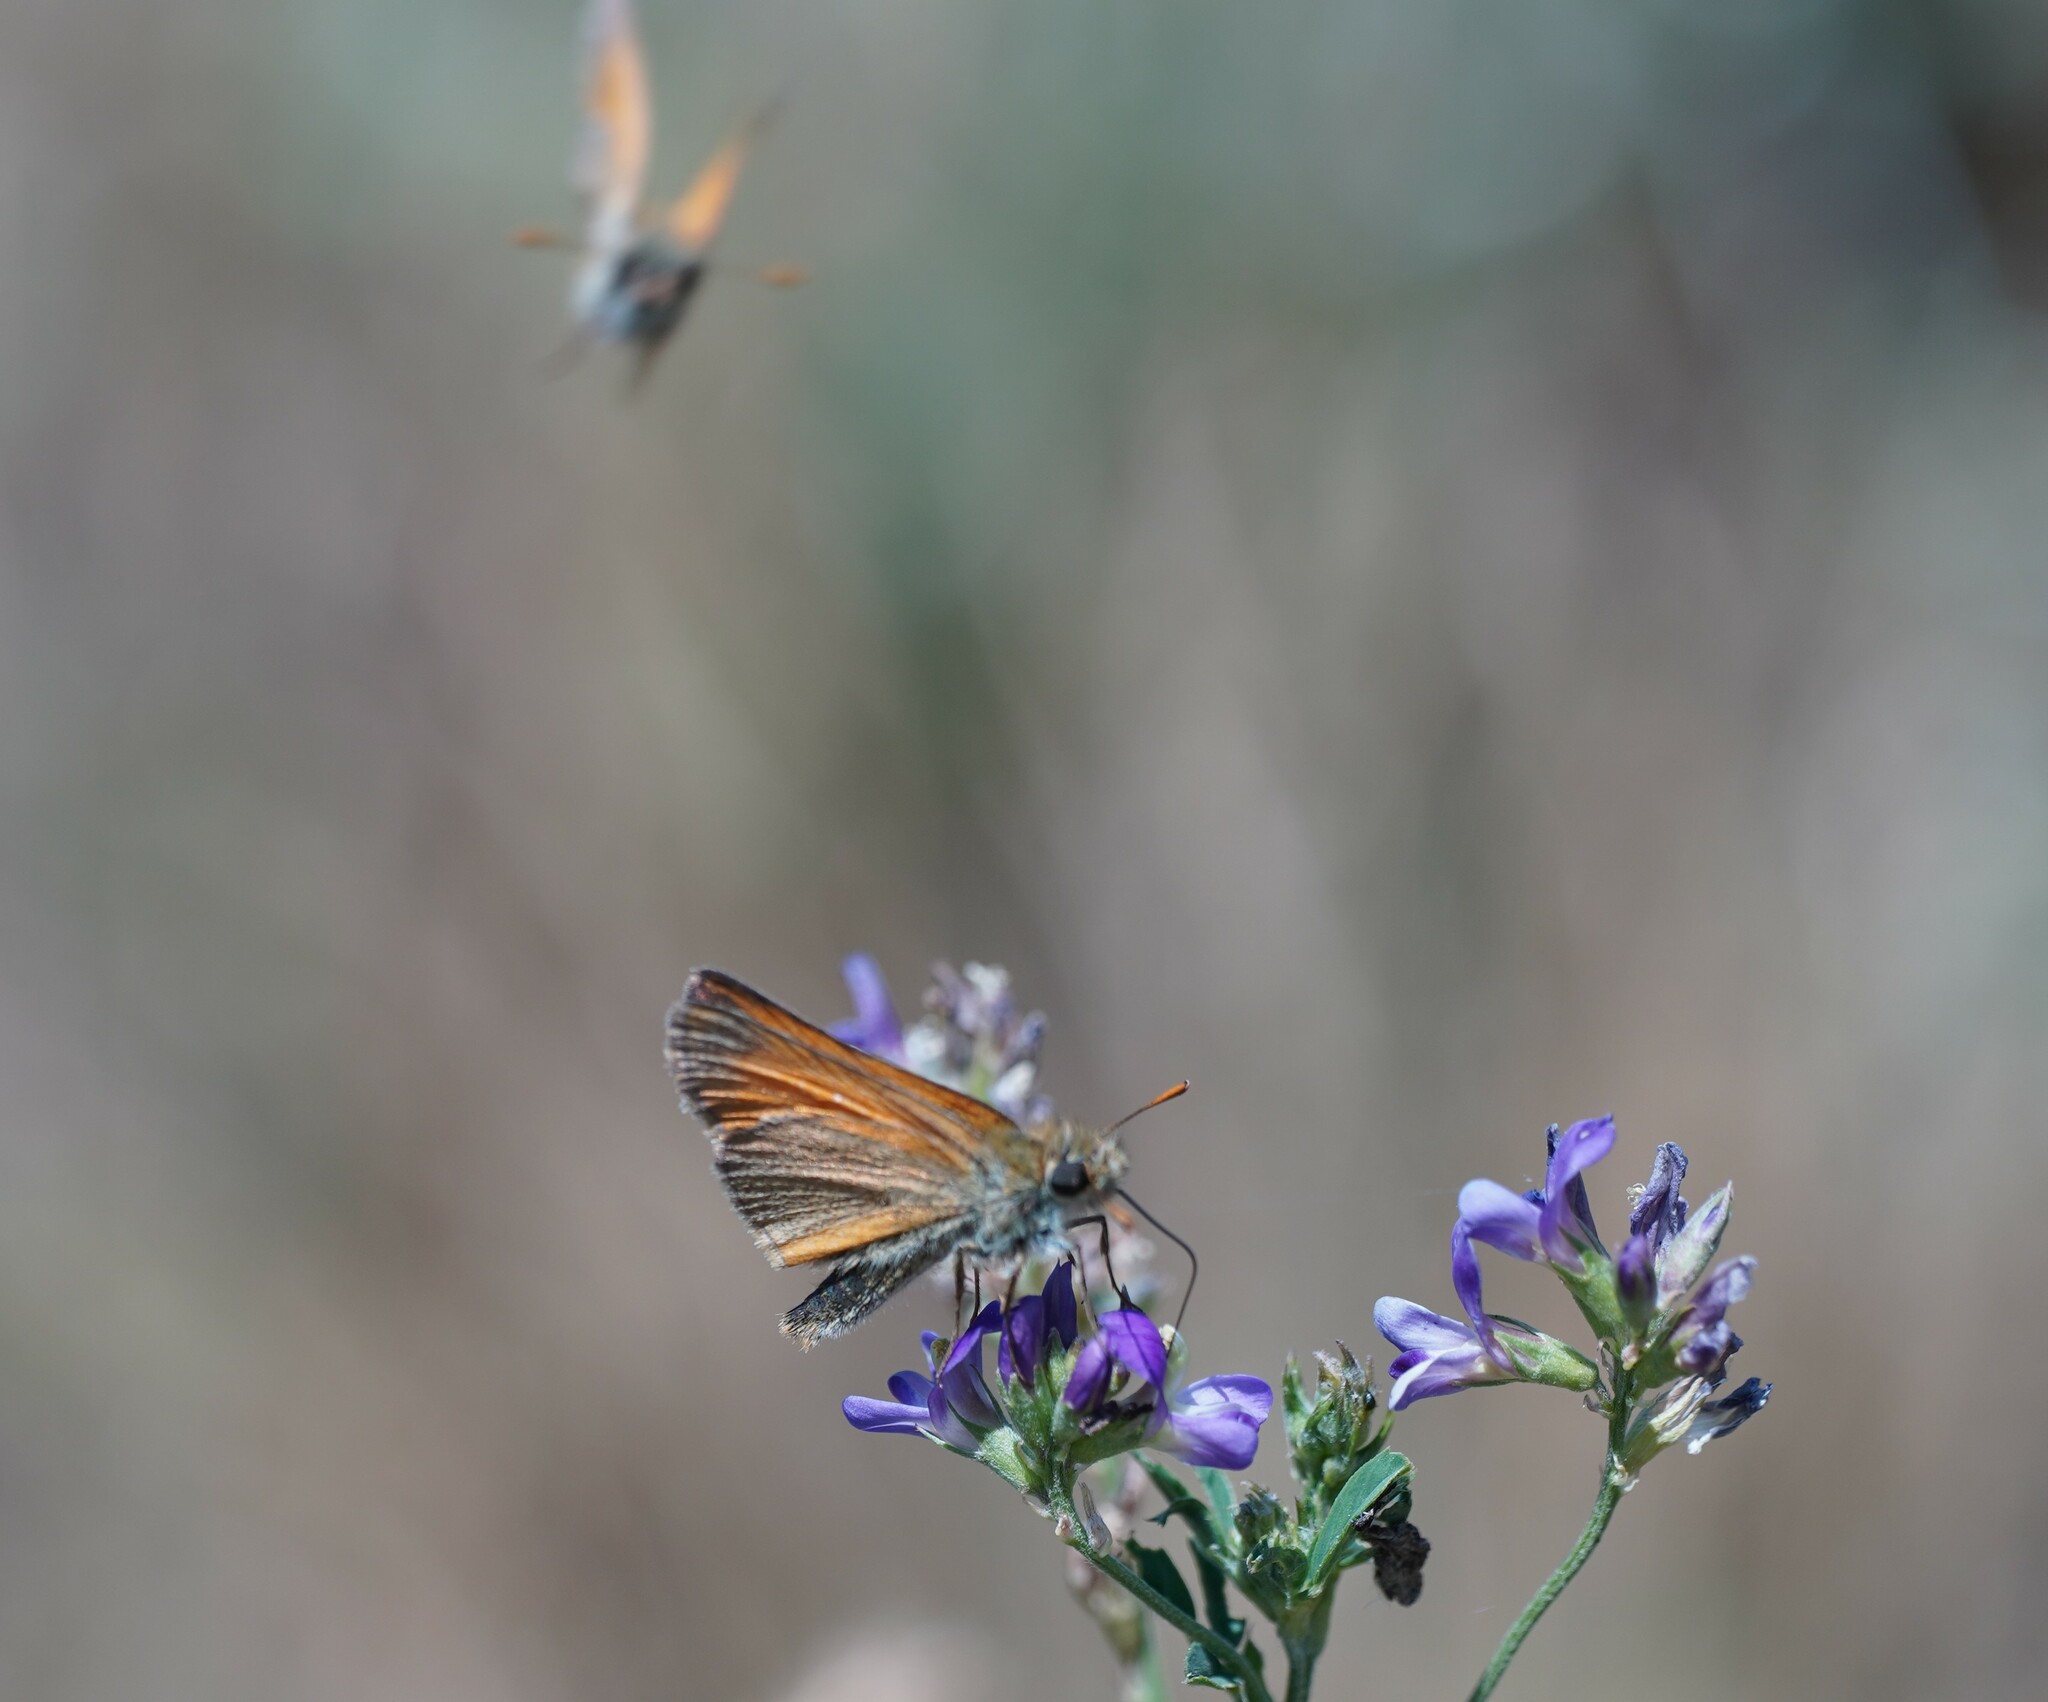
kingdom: Animalia
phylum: Arthropoda
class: Insecta
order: Lepidoptera
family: Hesperiidae
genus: Thymelicus
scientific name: Thymelicus sylvestris
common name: Small skipper
